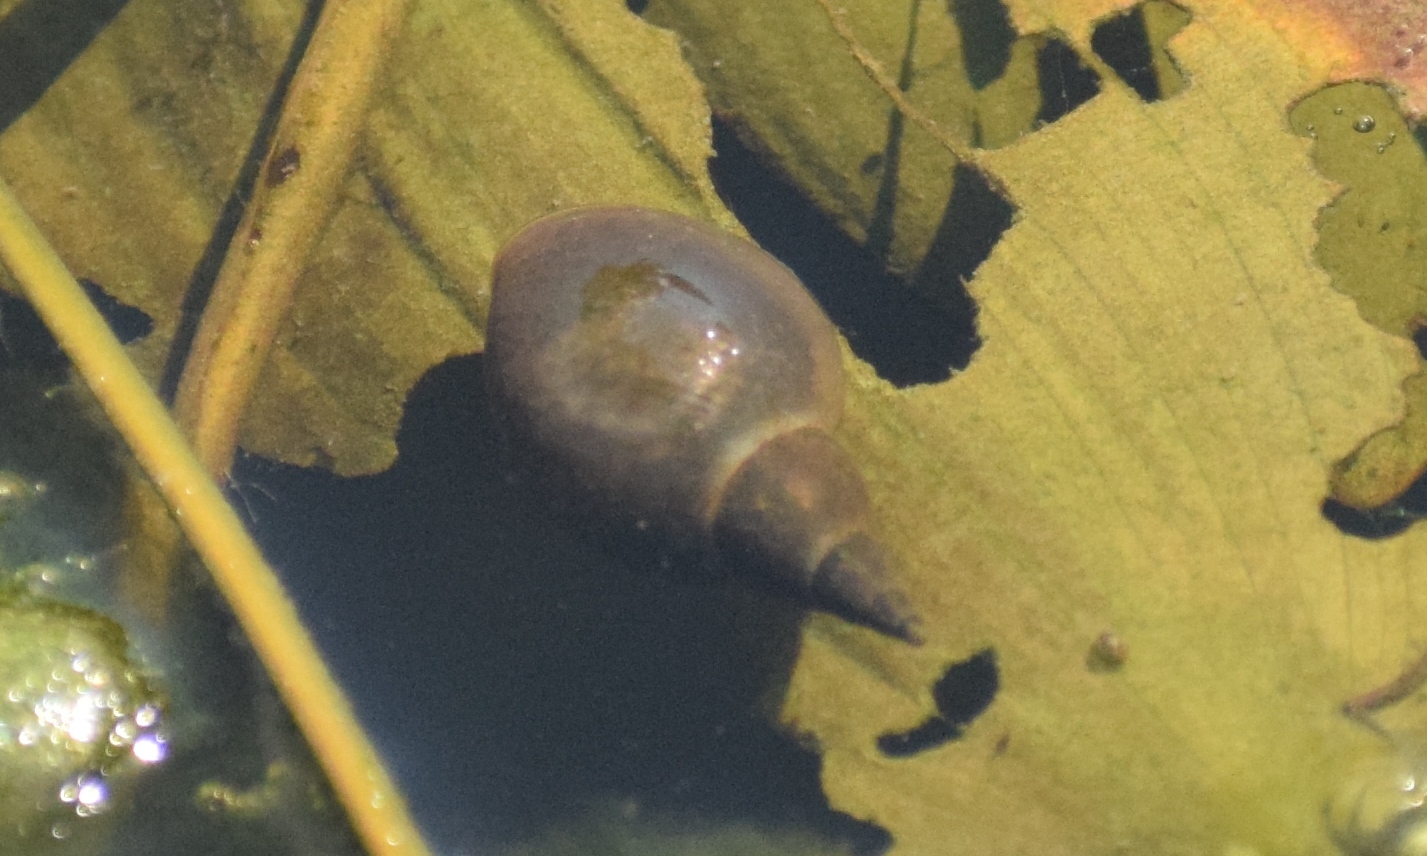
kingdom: Animalia
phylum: Mollusca
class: Gastropoda
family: Lymnaeidae
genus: Lymnaea
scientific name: Lymnaea stagnalis
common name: Great pond snail
